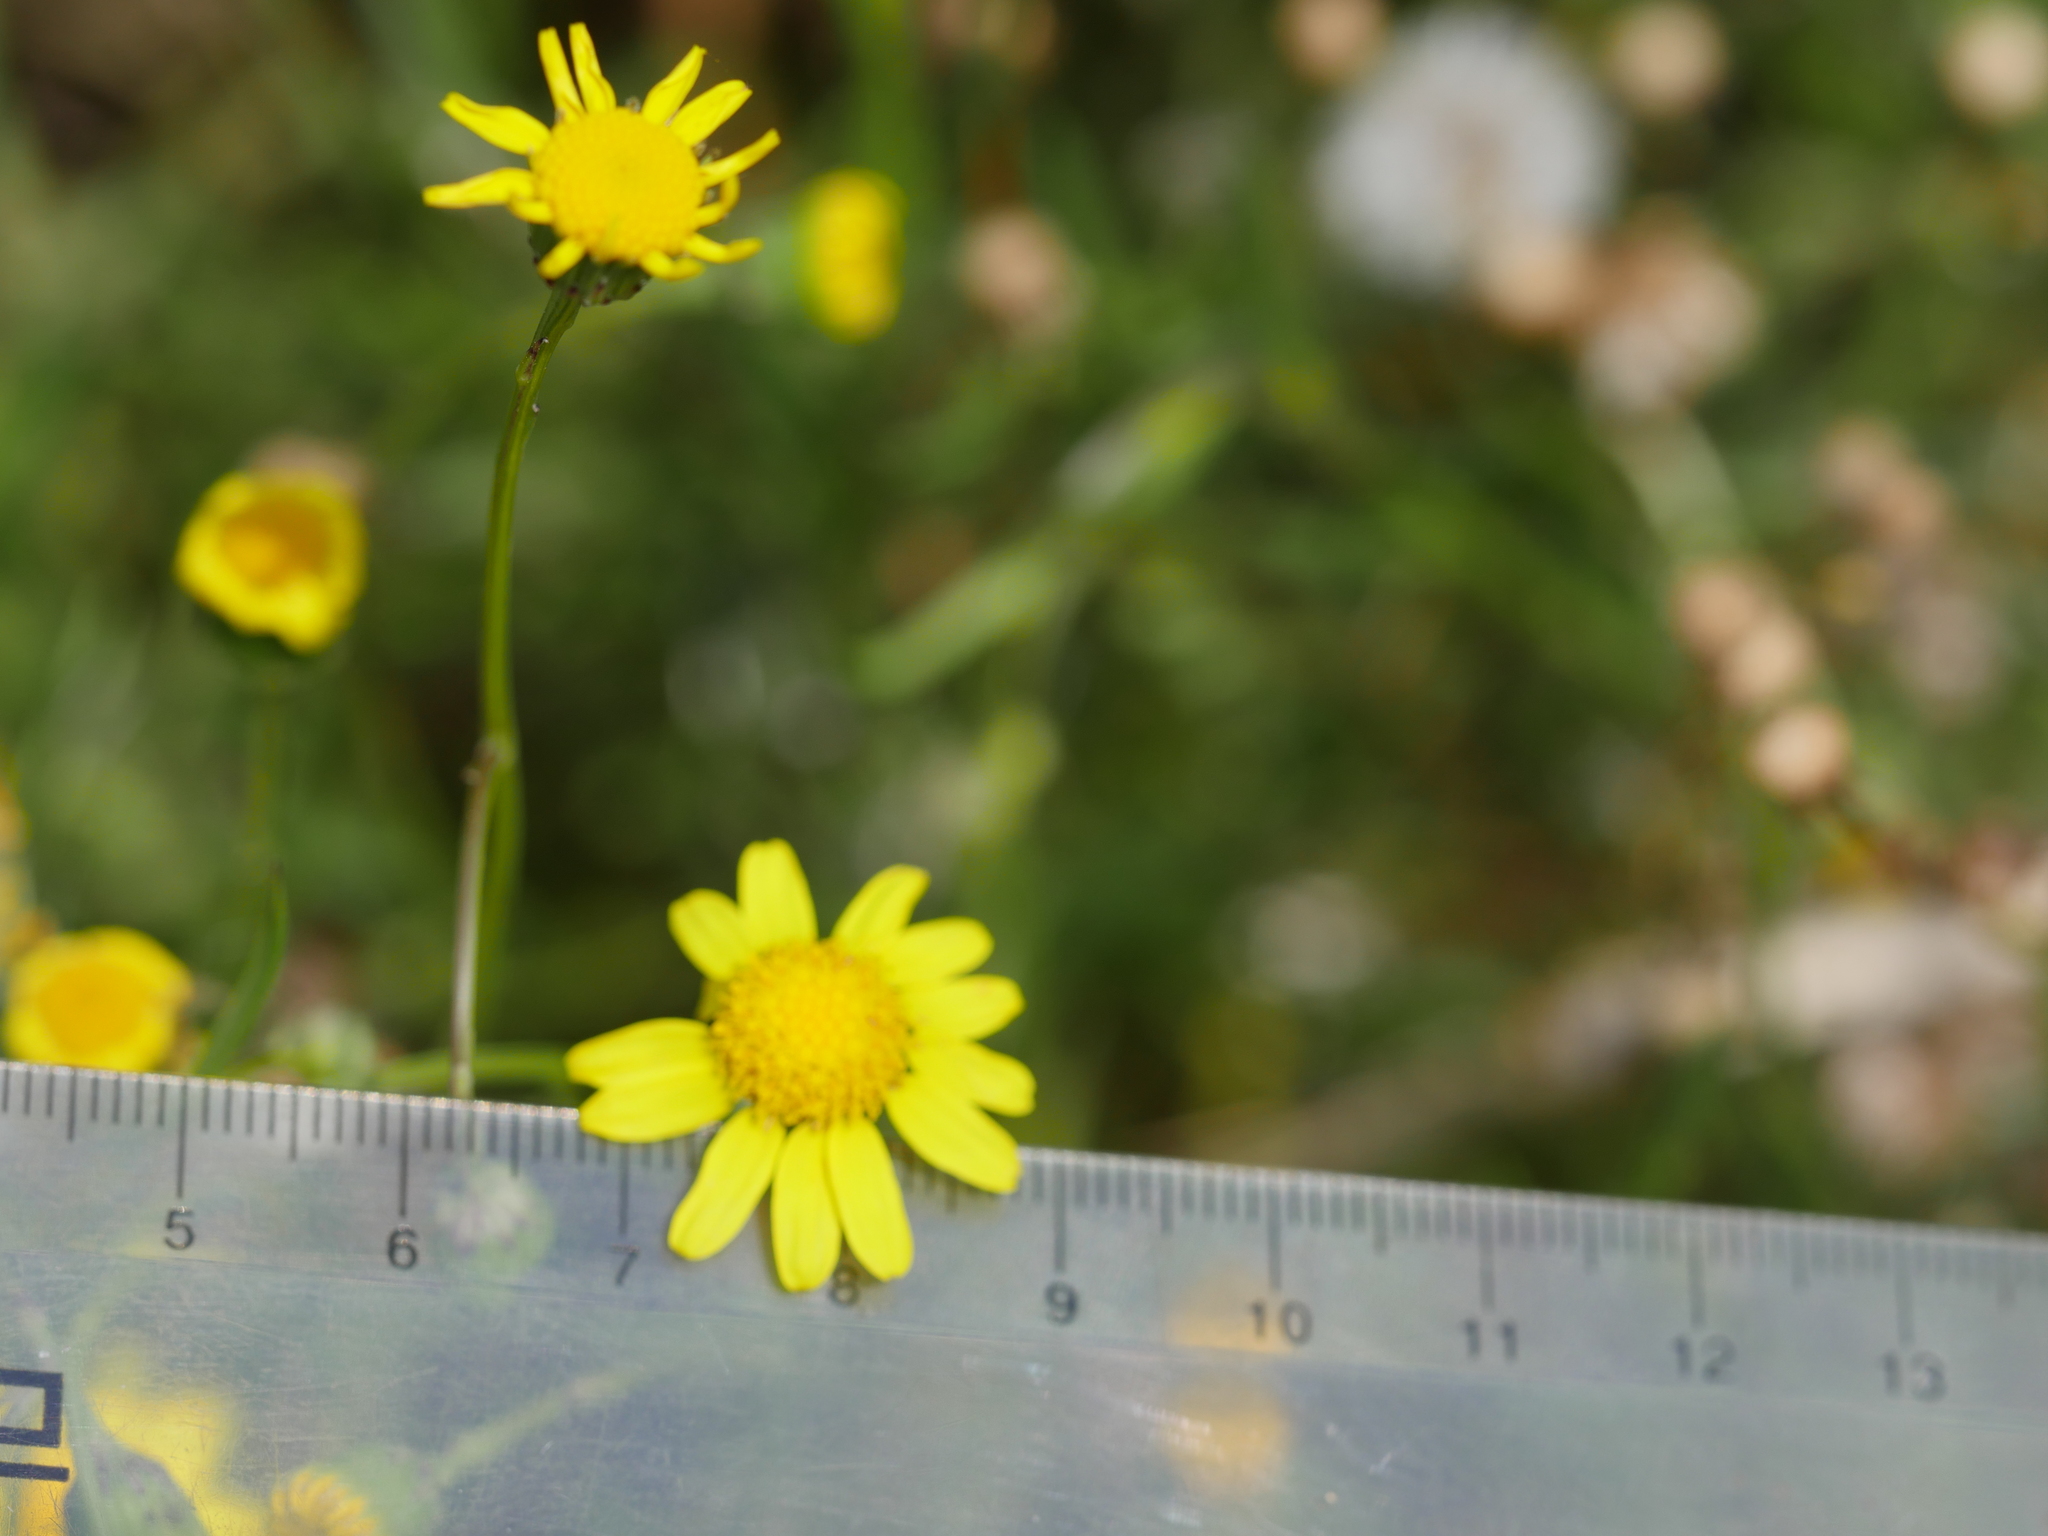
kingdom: Plantae
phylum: Tracheophyta
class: Magnoliopsida
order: Asterales
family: Asteraceae
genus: Senecio
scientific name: Senecio skirrhodon
